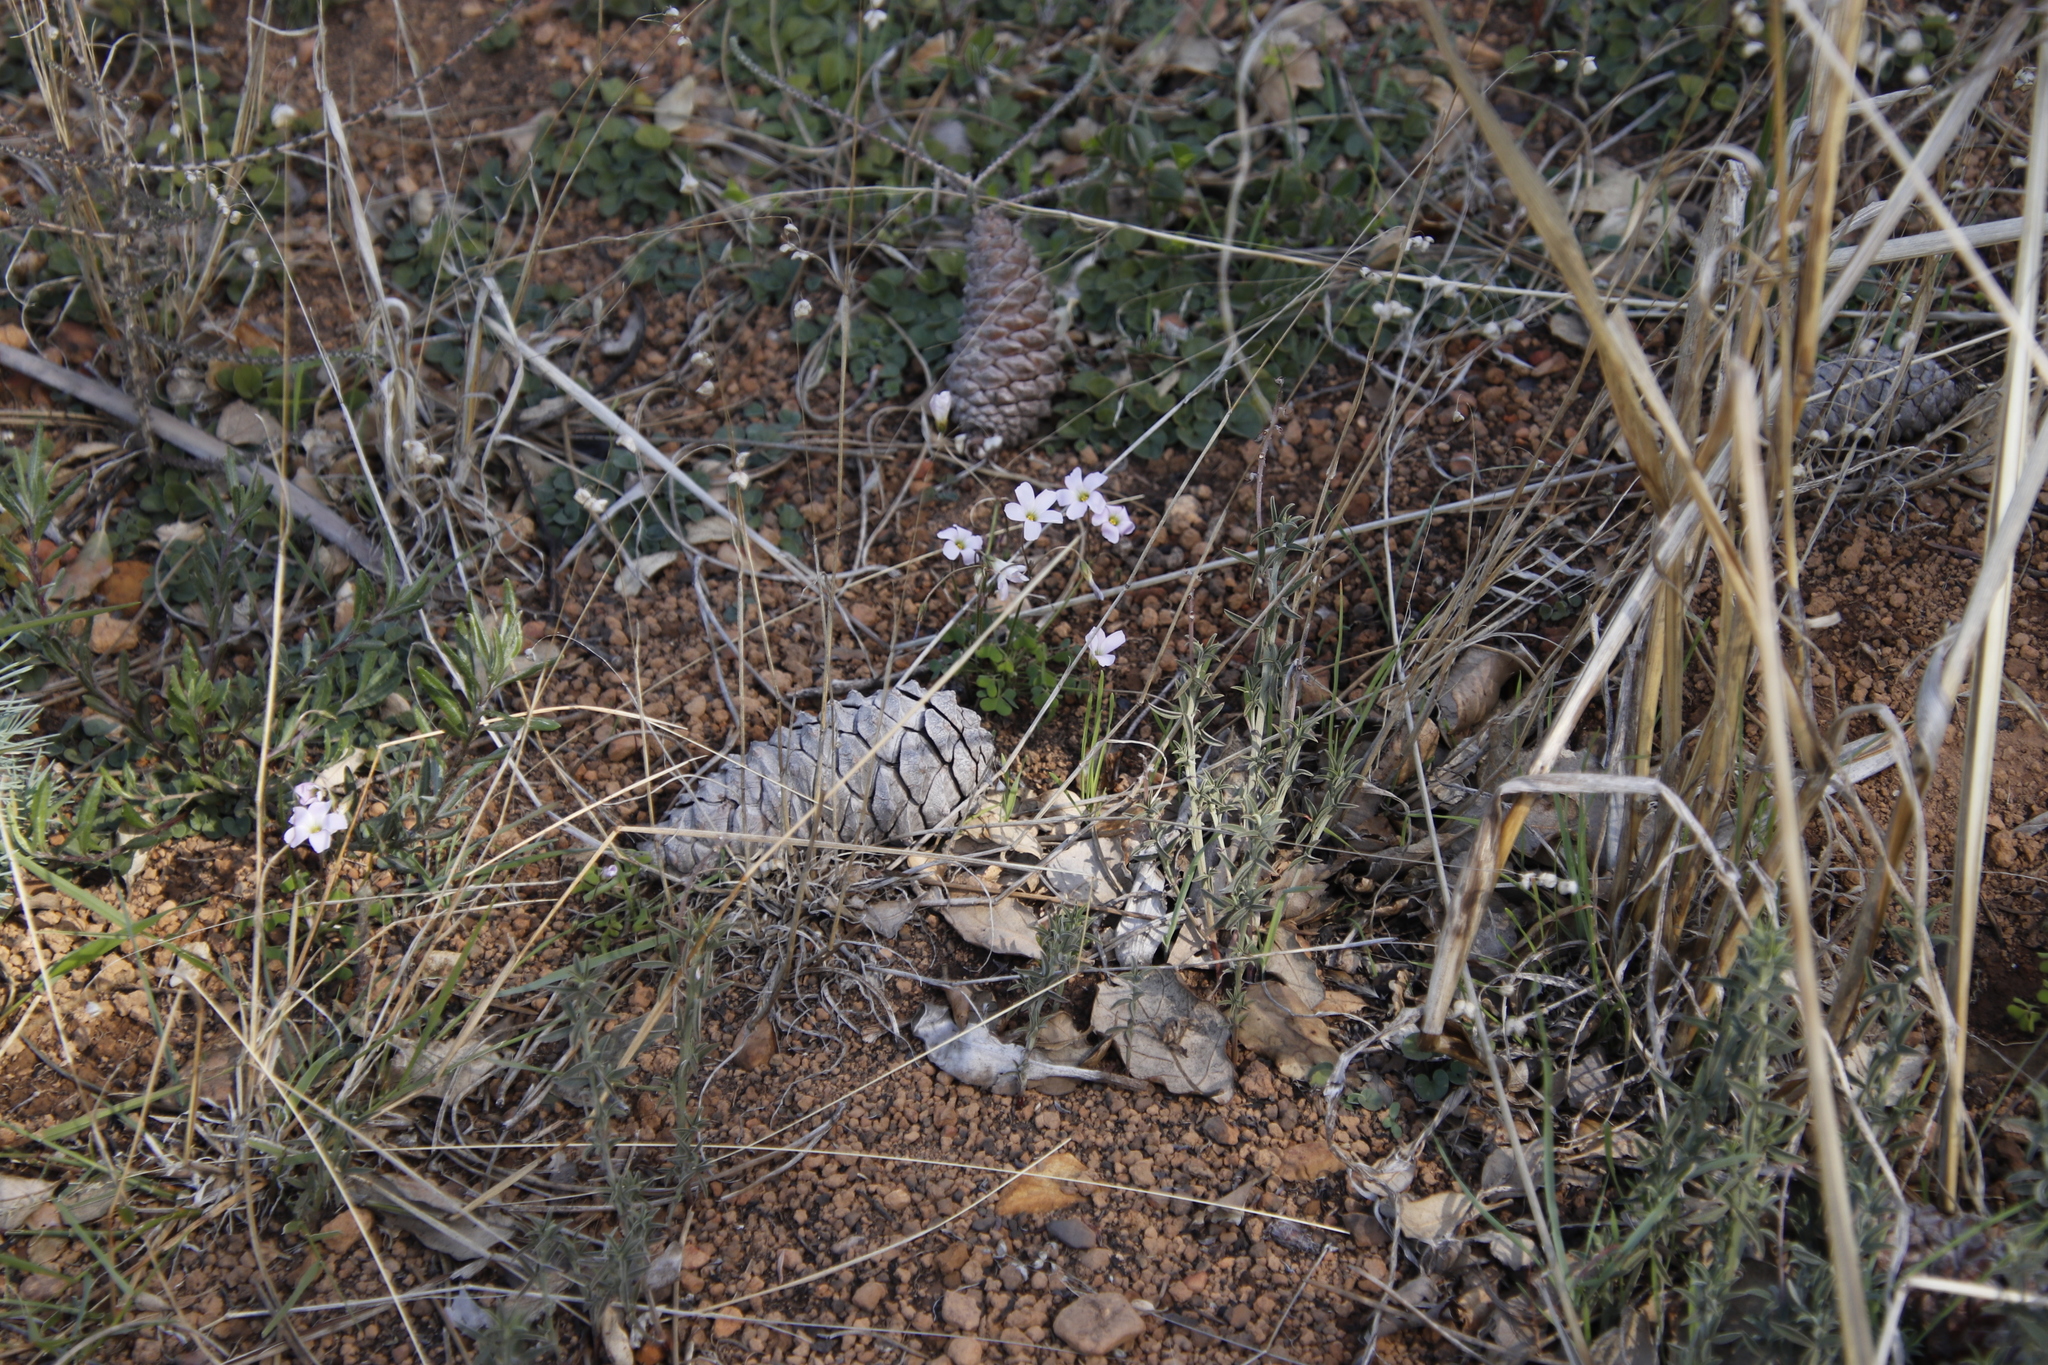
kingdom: Plantae
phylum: Tracheophyta
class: Magnoliopsida
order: Oxalidales
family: Oxalidaceae
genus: Oxalis
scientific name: Oxalis
